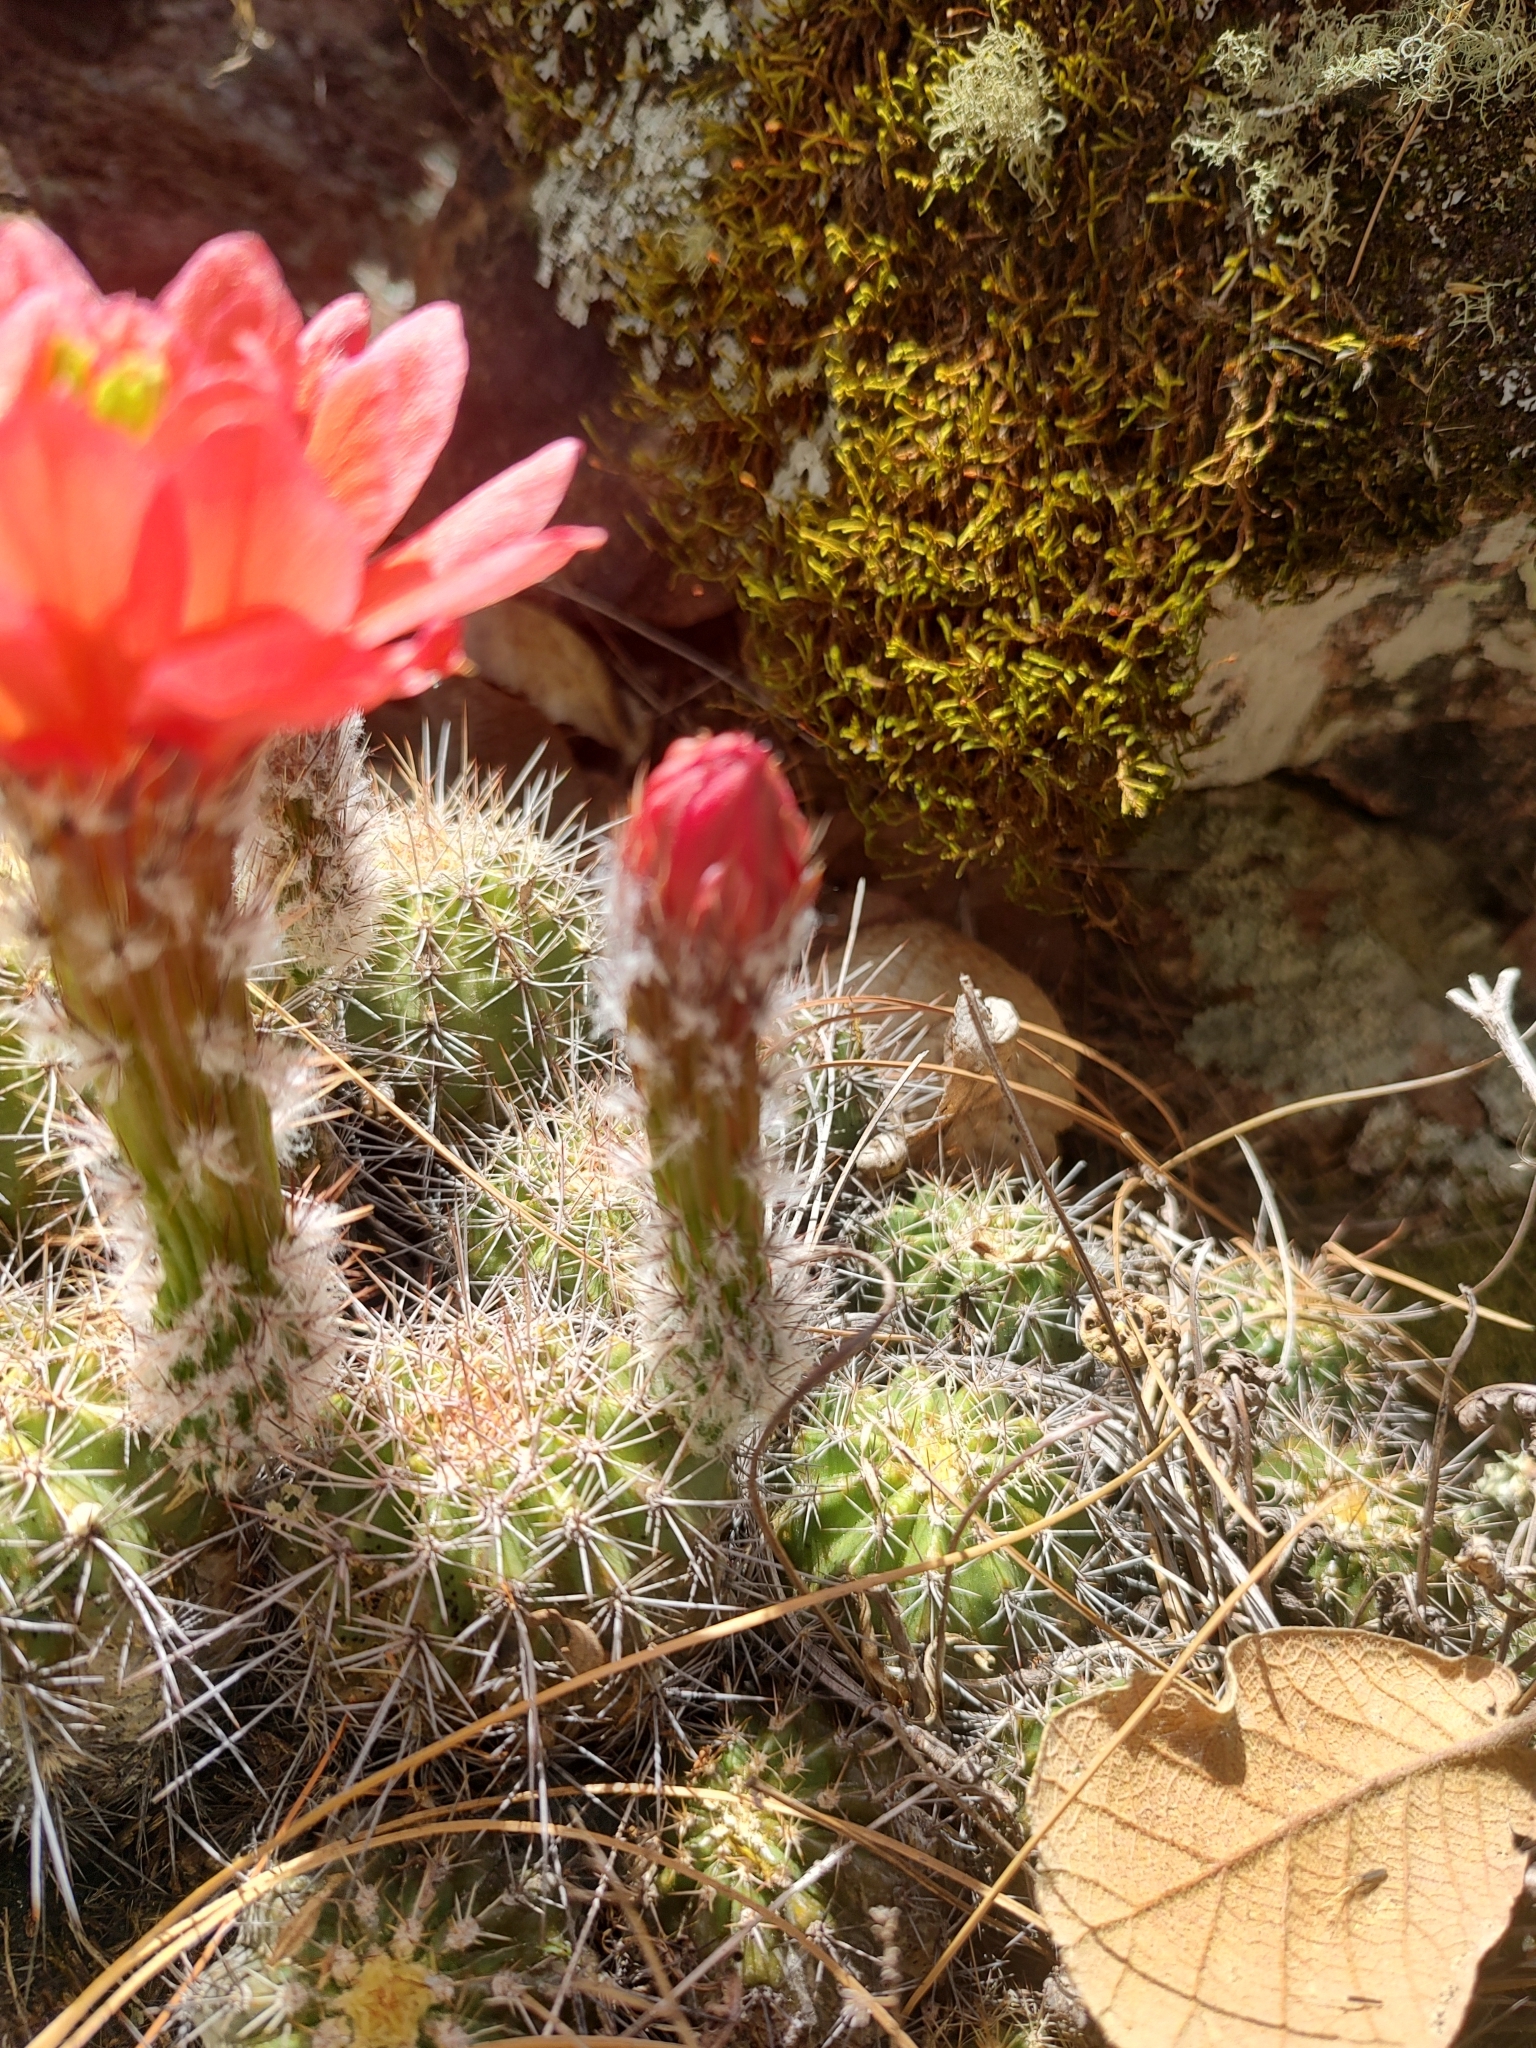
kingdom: Plantae
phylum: Tracheophyta
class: Magnoliopsida
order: Caryophyllales
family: Cactaceae
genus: Echinocereus
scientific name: Echinocereus acifer
